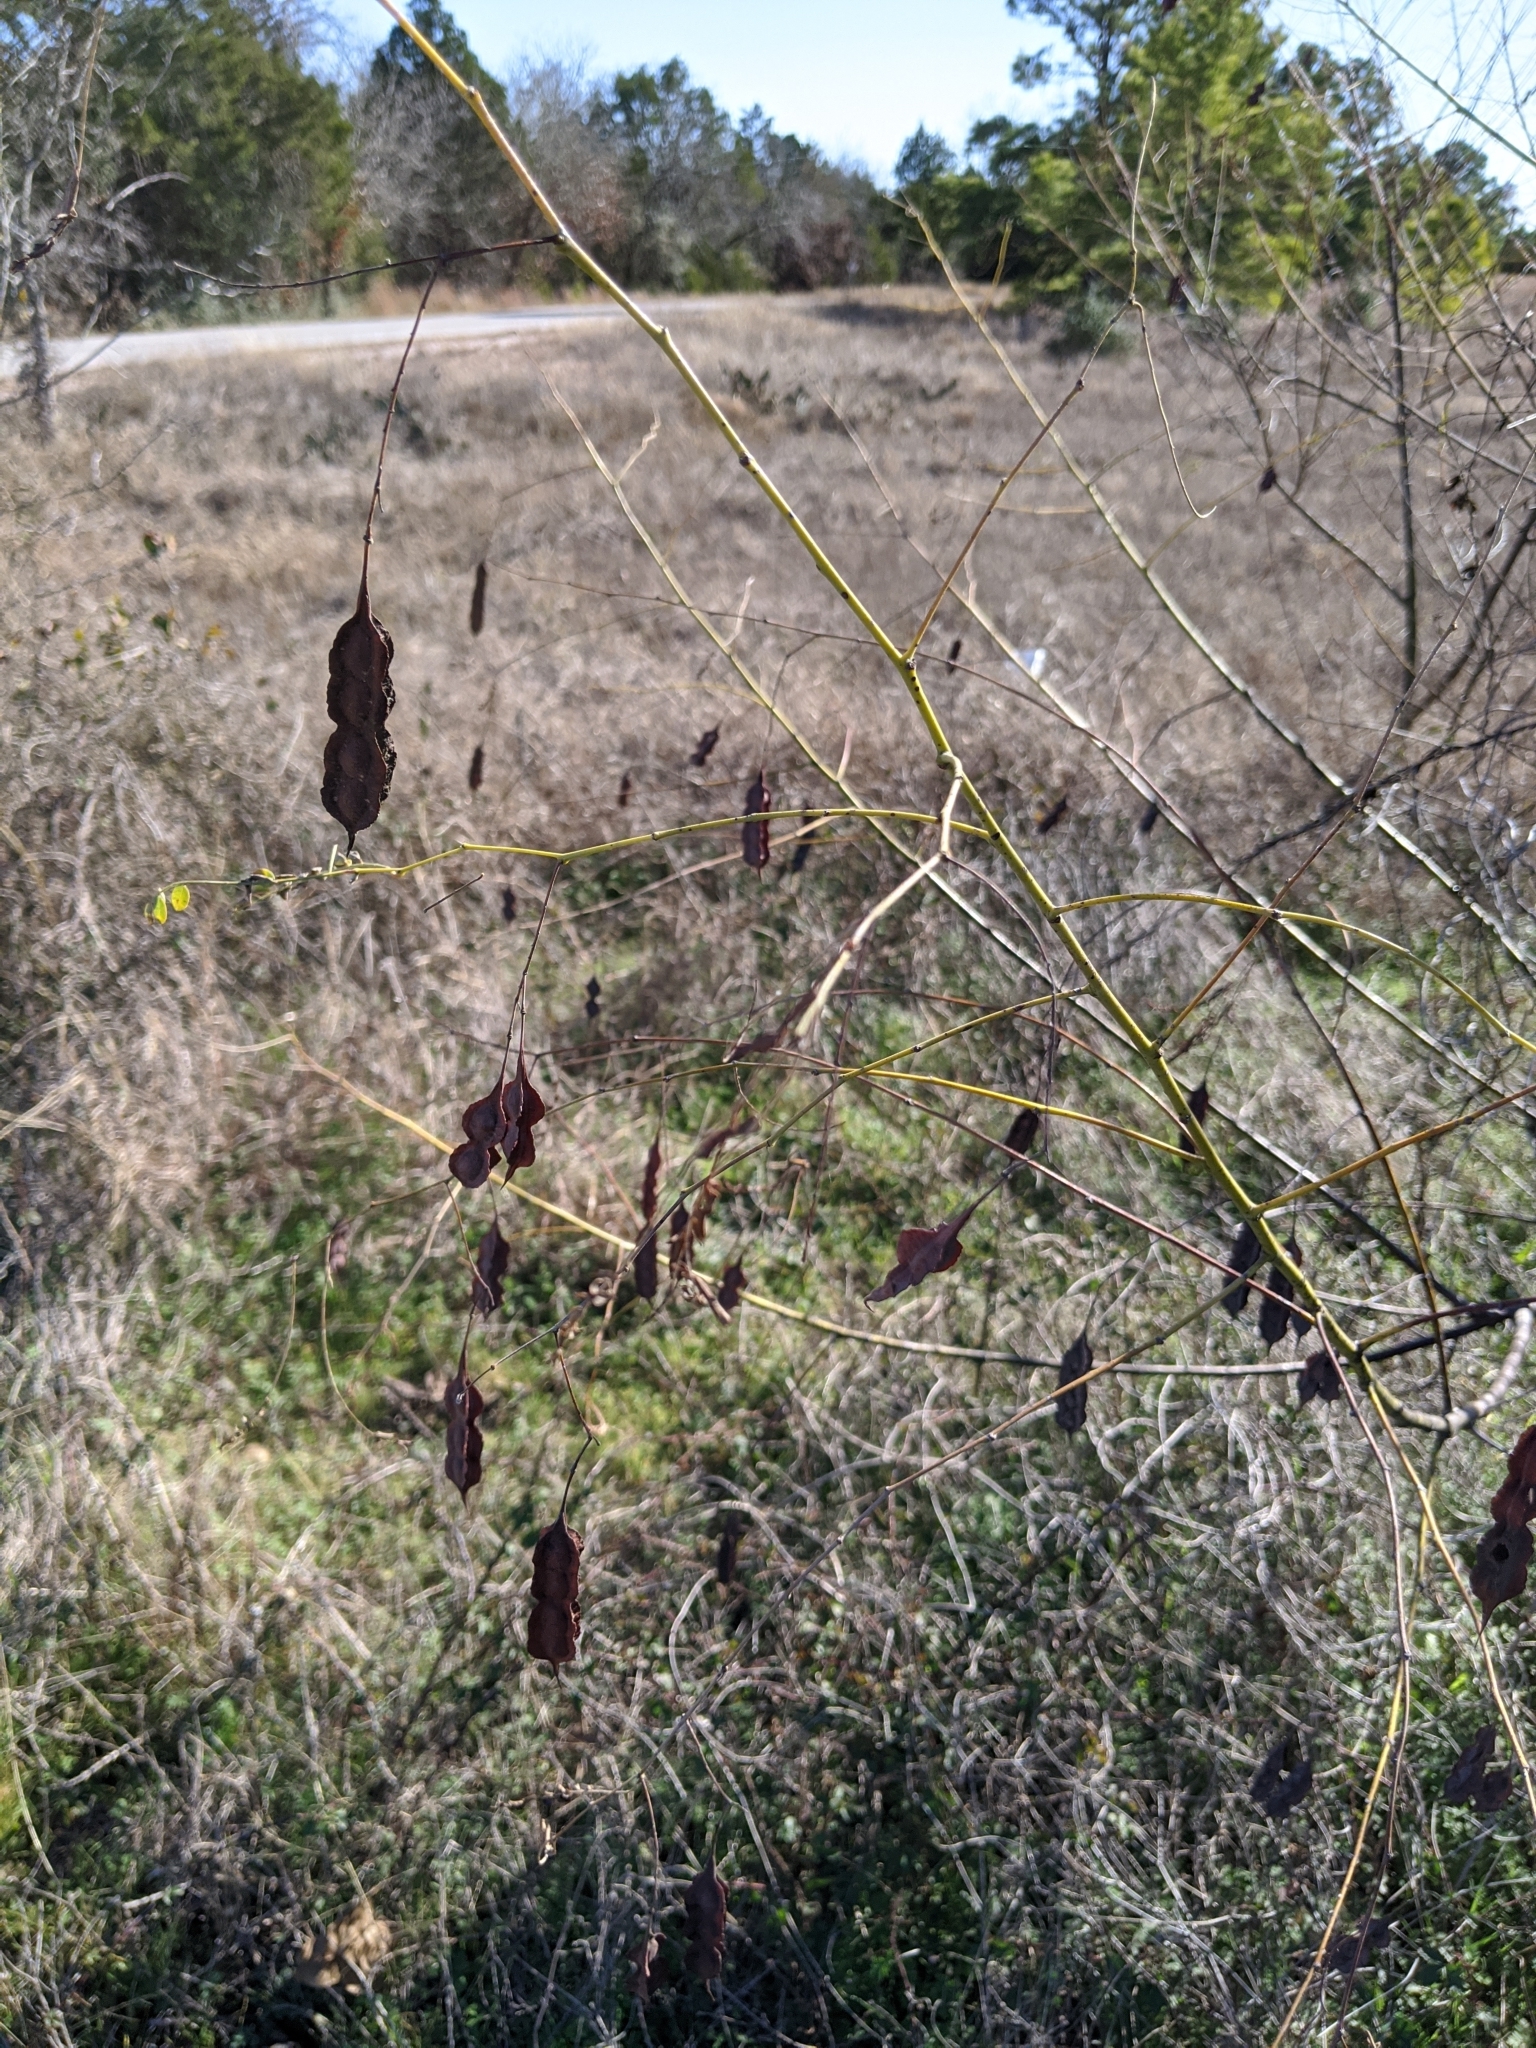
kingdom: Plantae
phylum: Tracheophyta
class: Magnoliopsida
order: Fabales
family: Fabaceae
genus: Sesbania
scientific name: Sesbania drummondii
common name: Poison-bean
